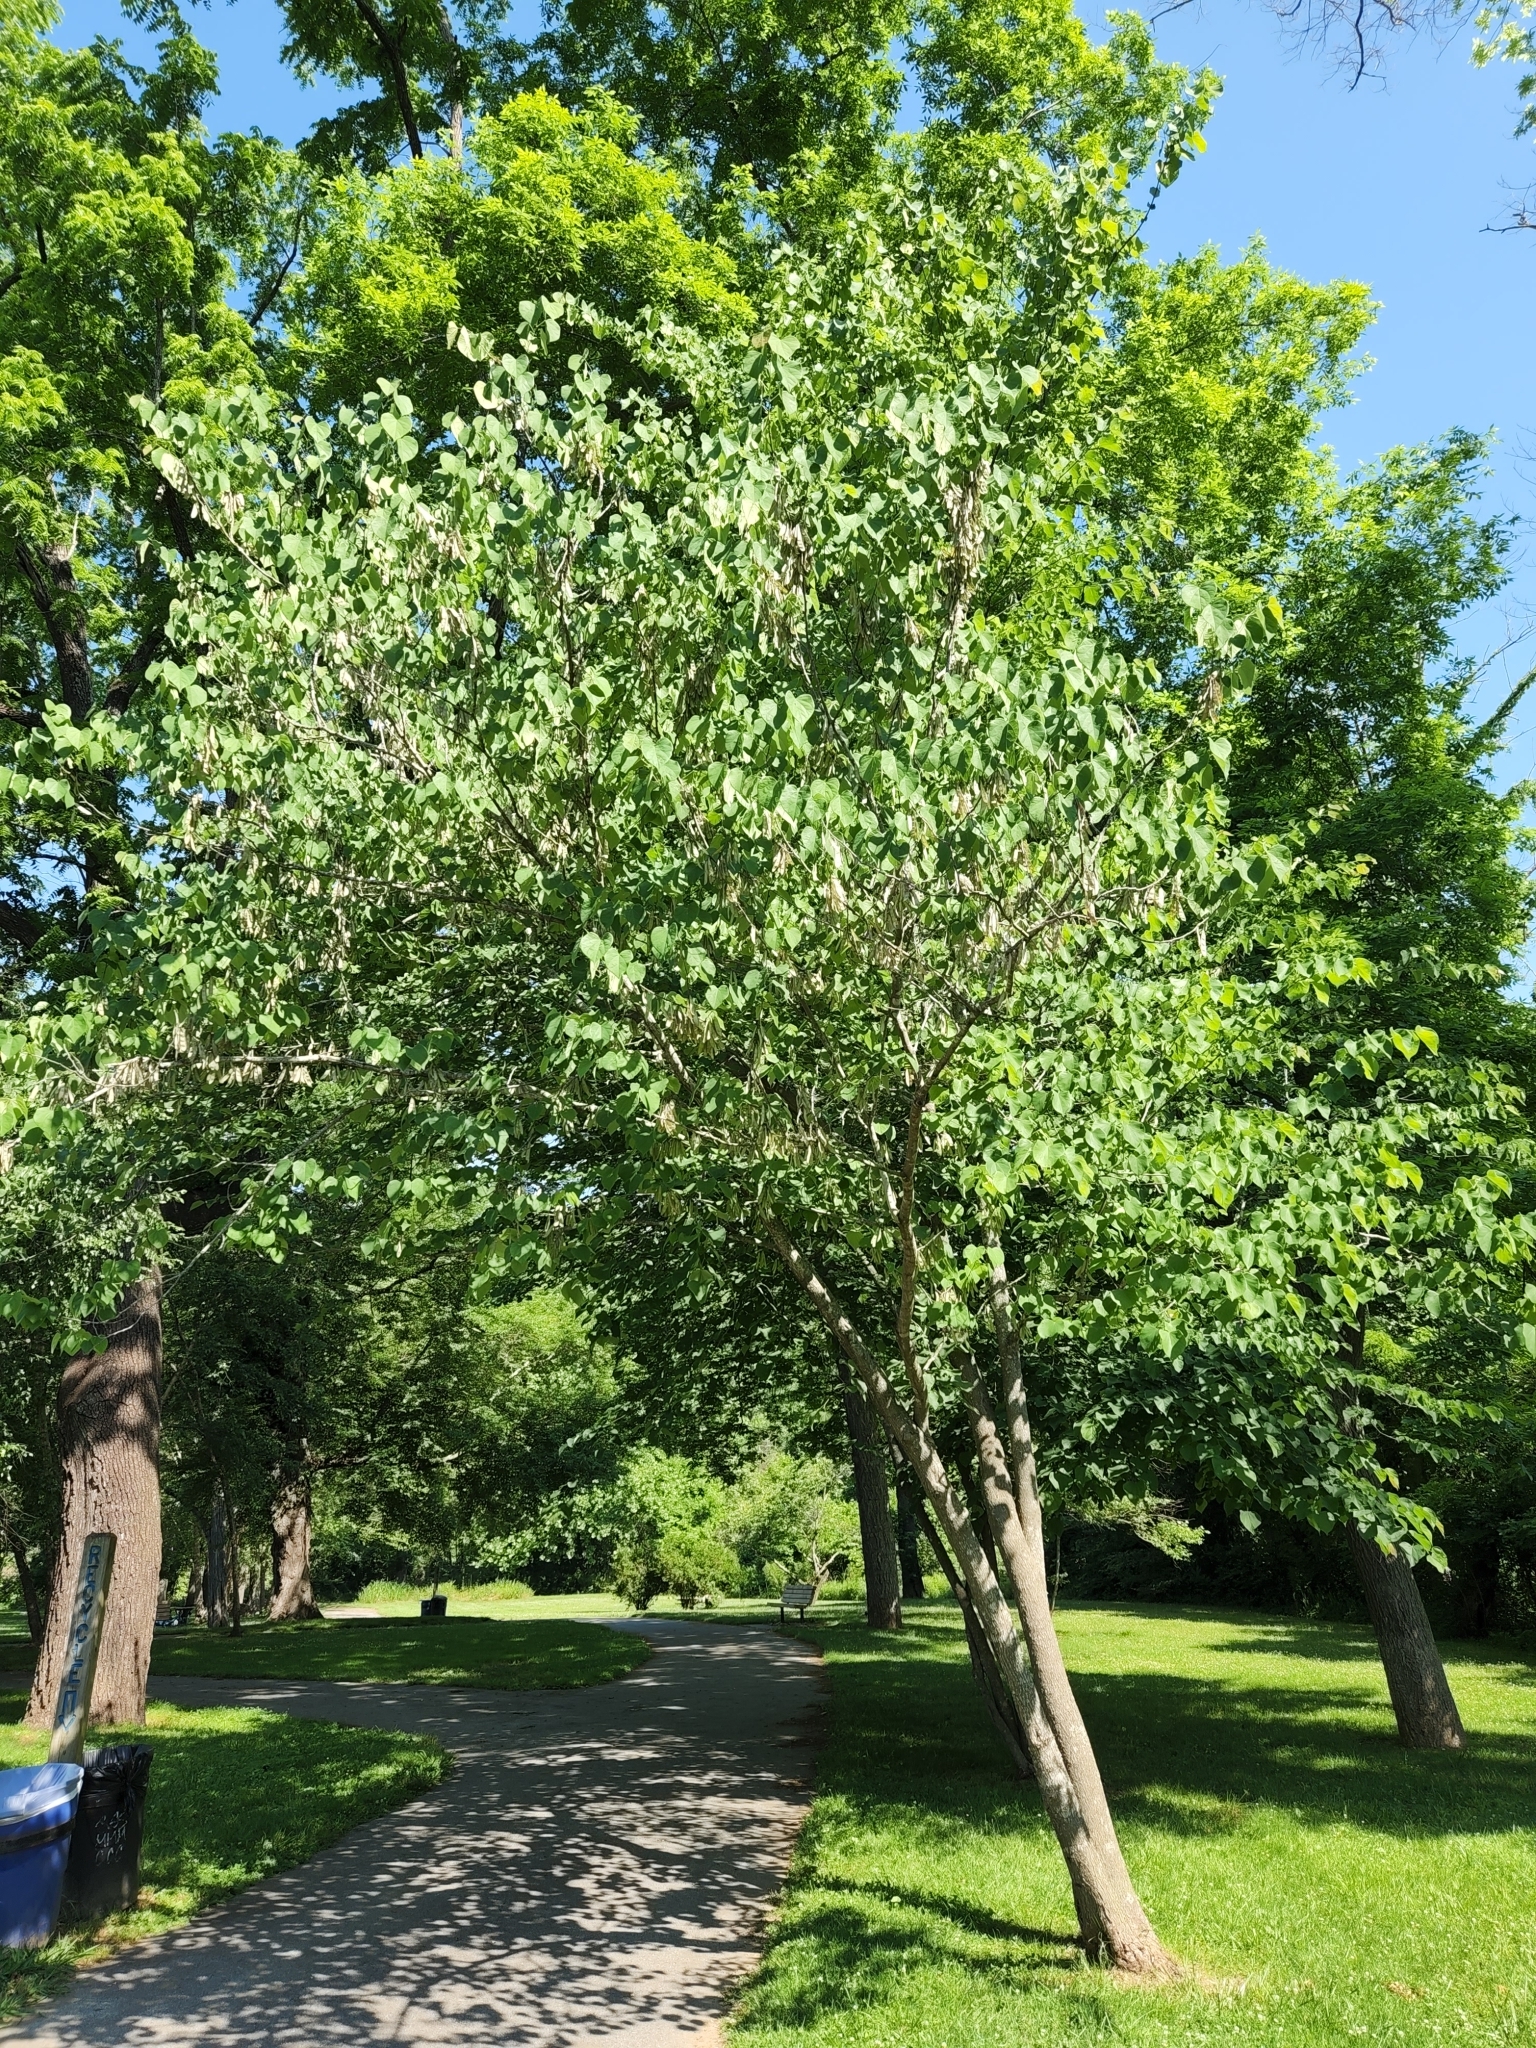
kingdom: Plantae
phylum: Tracheophyta
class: Magnoliopsida
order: Fabales
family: Fabaceae
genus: Cercis
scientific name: Cercis canadensis
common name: Eastern redbud
